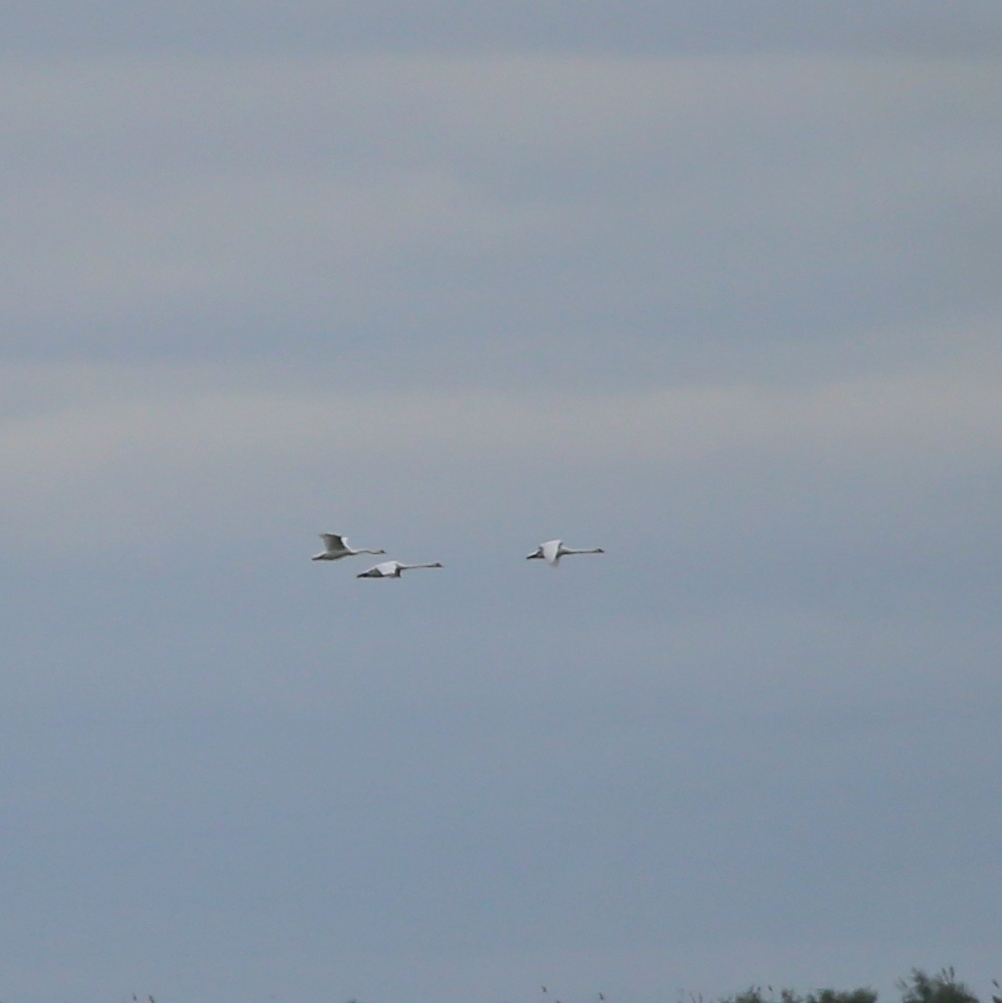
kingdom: Animalia
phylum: Chordata
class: Aves
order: Anseriformes
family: Anatidae
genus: Cygnus
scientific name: Cygnus olor
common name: Mute swan
